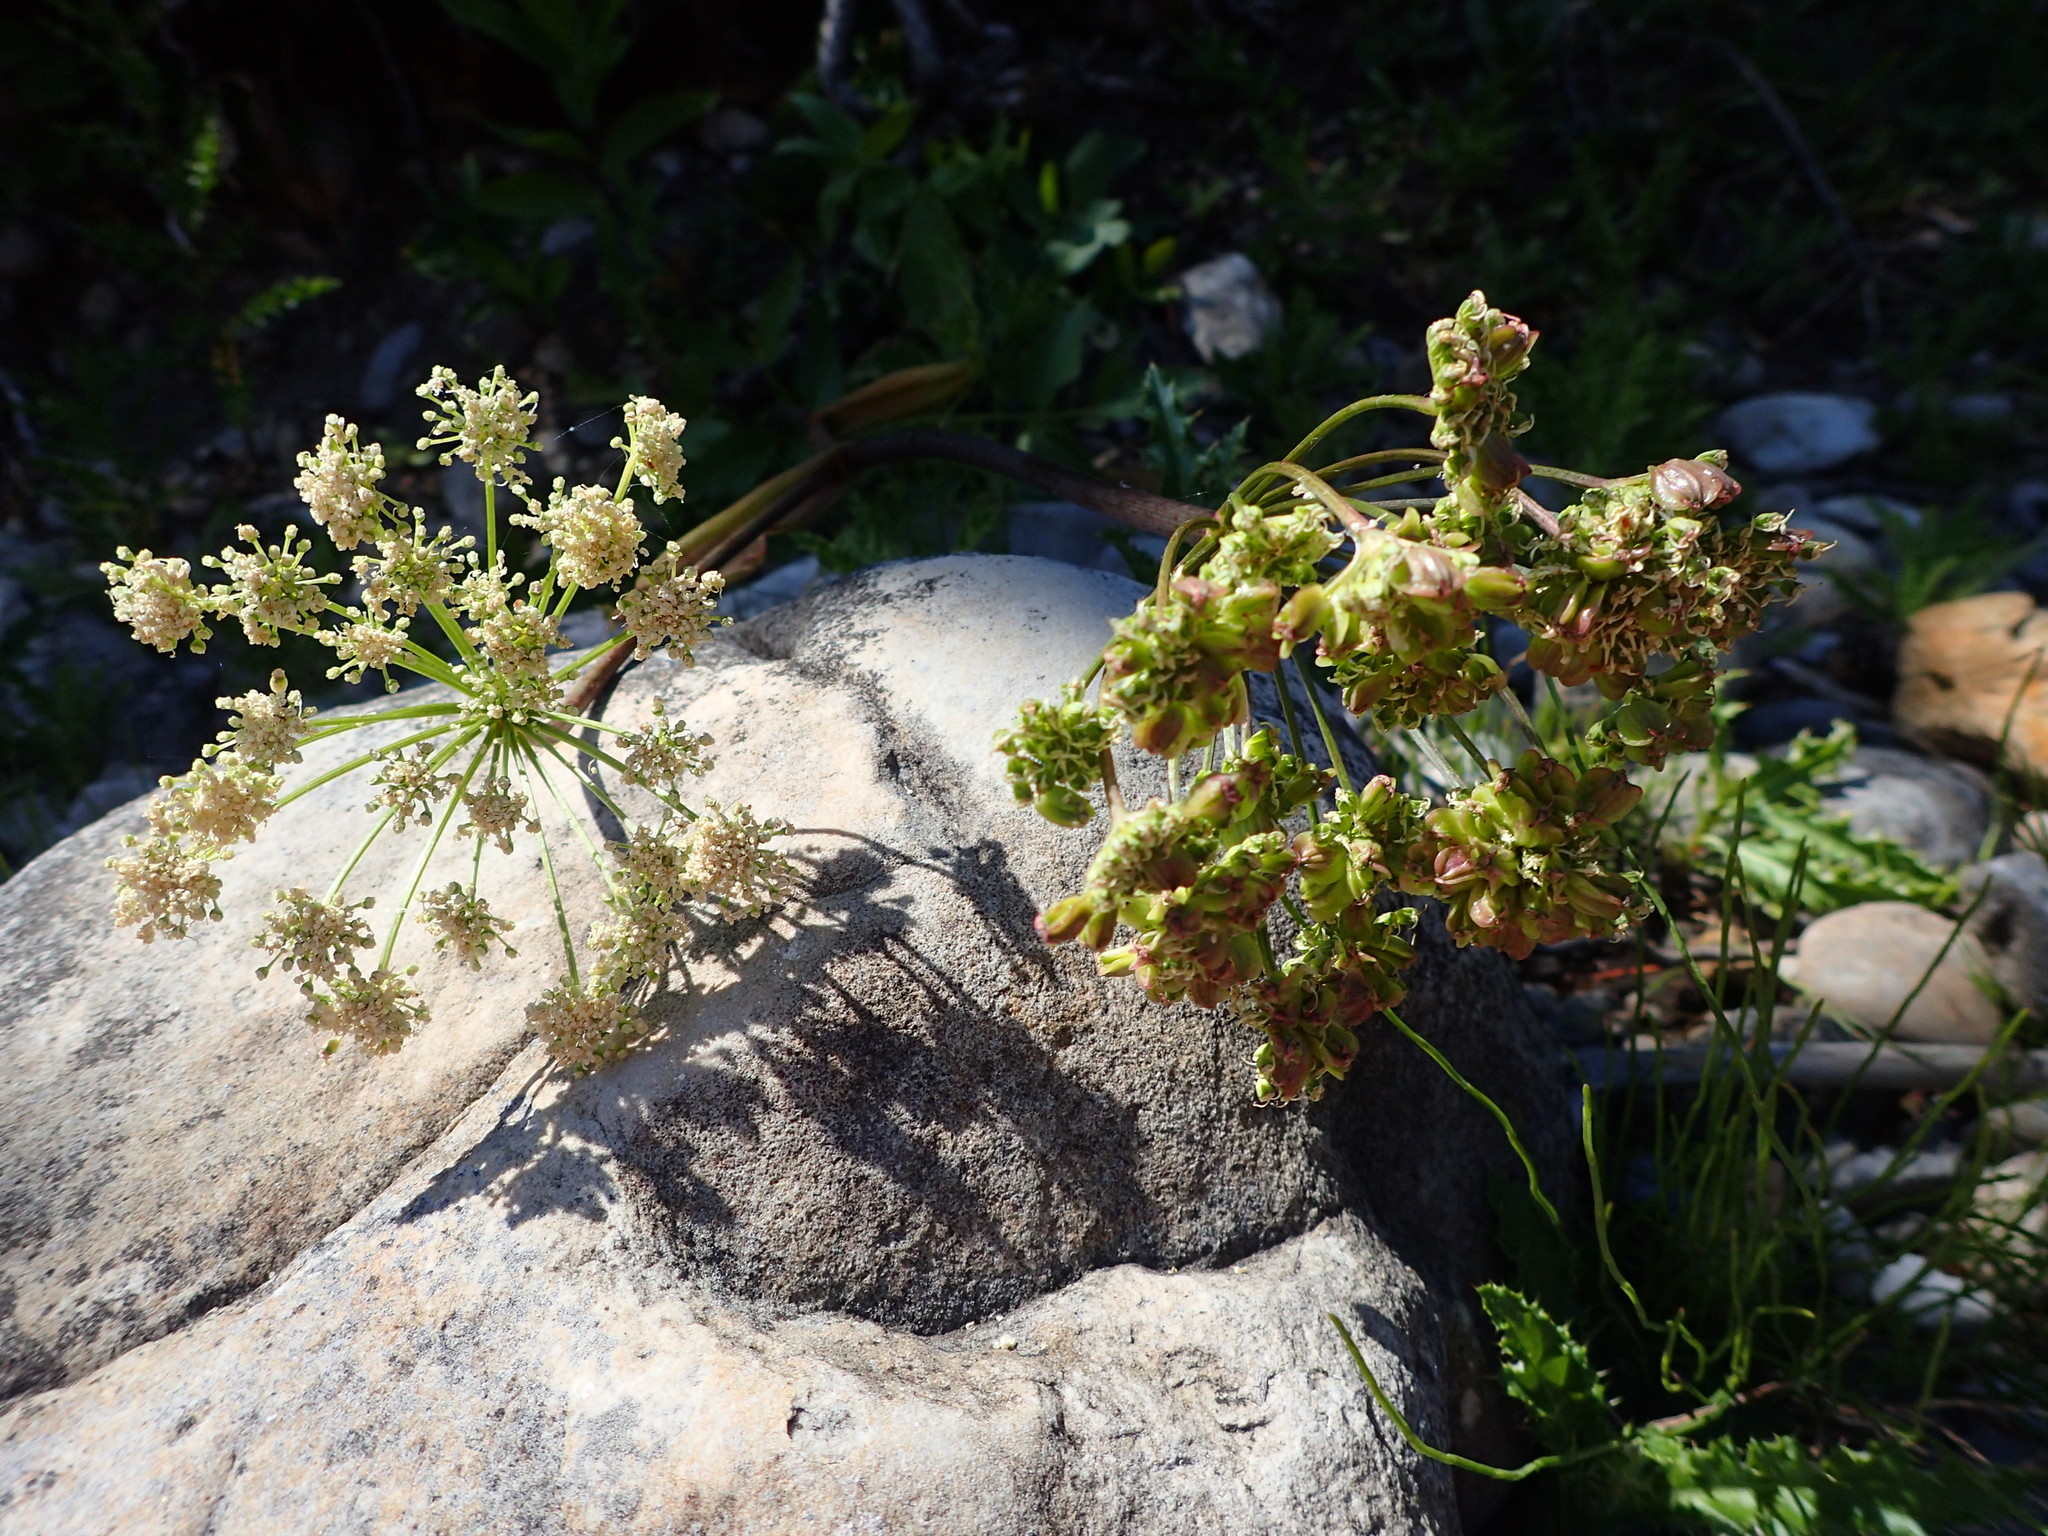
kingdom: Plantae
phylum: Tracheophyta
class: Magnoliopsida
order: Apiales
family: Apiaceae
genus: Angelica
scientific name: Angelica arguta
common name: Lyall's angelica
